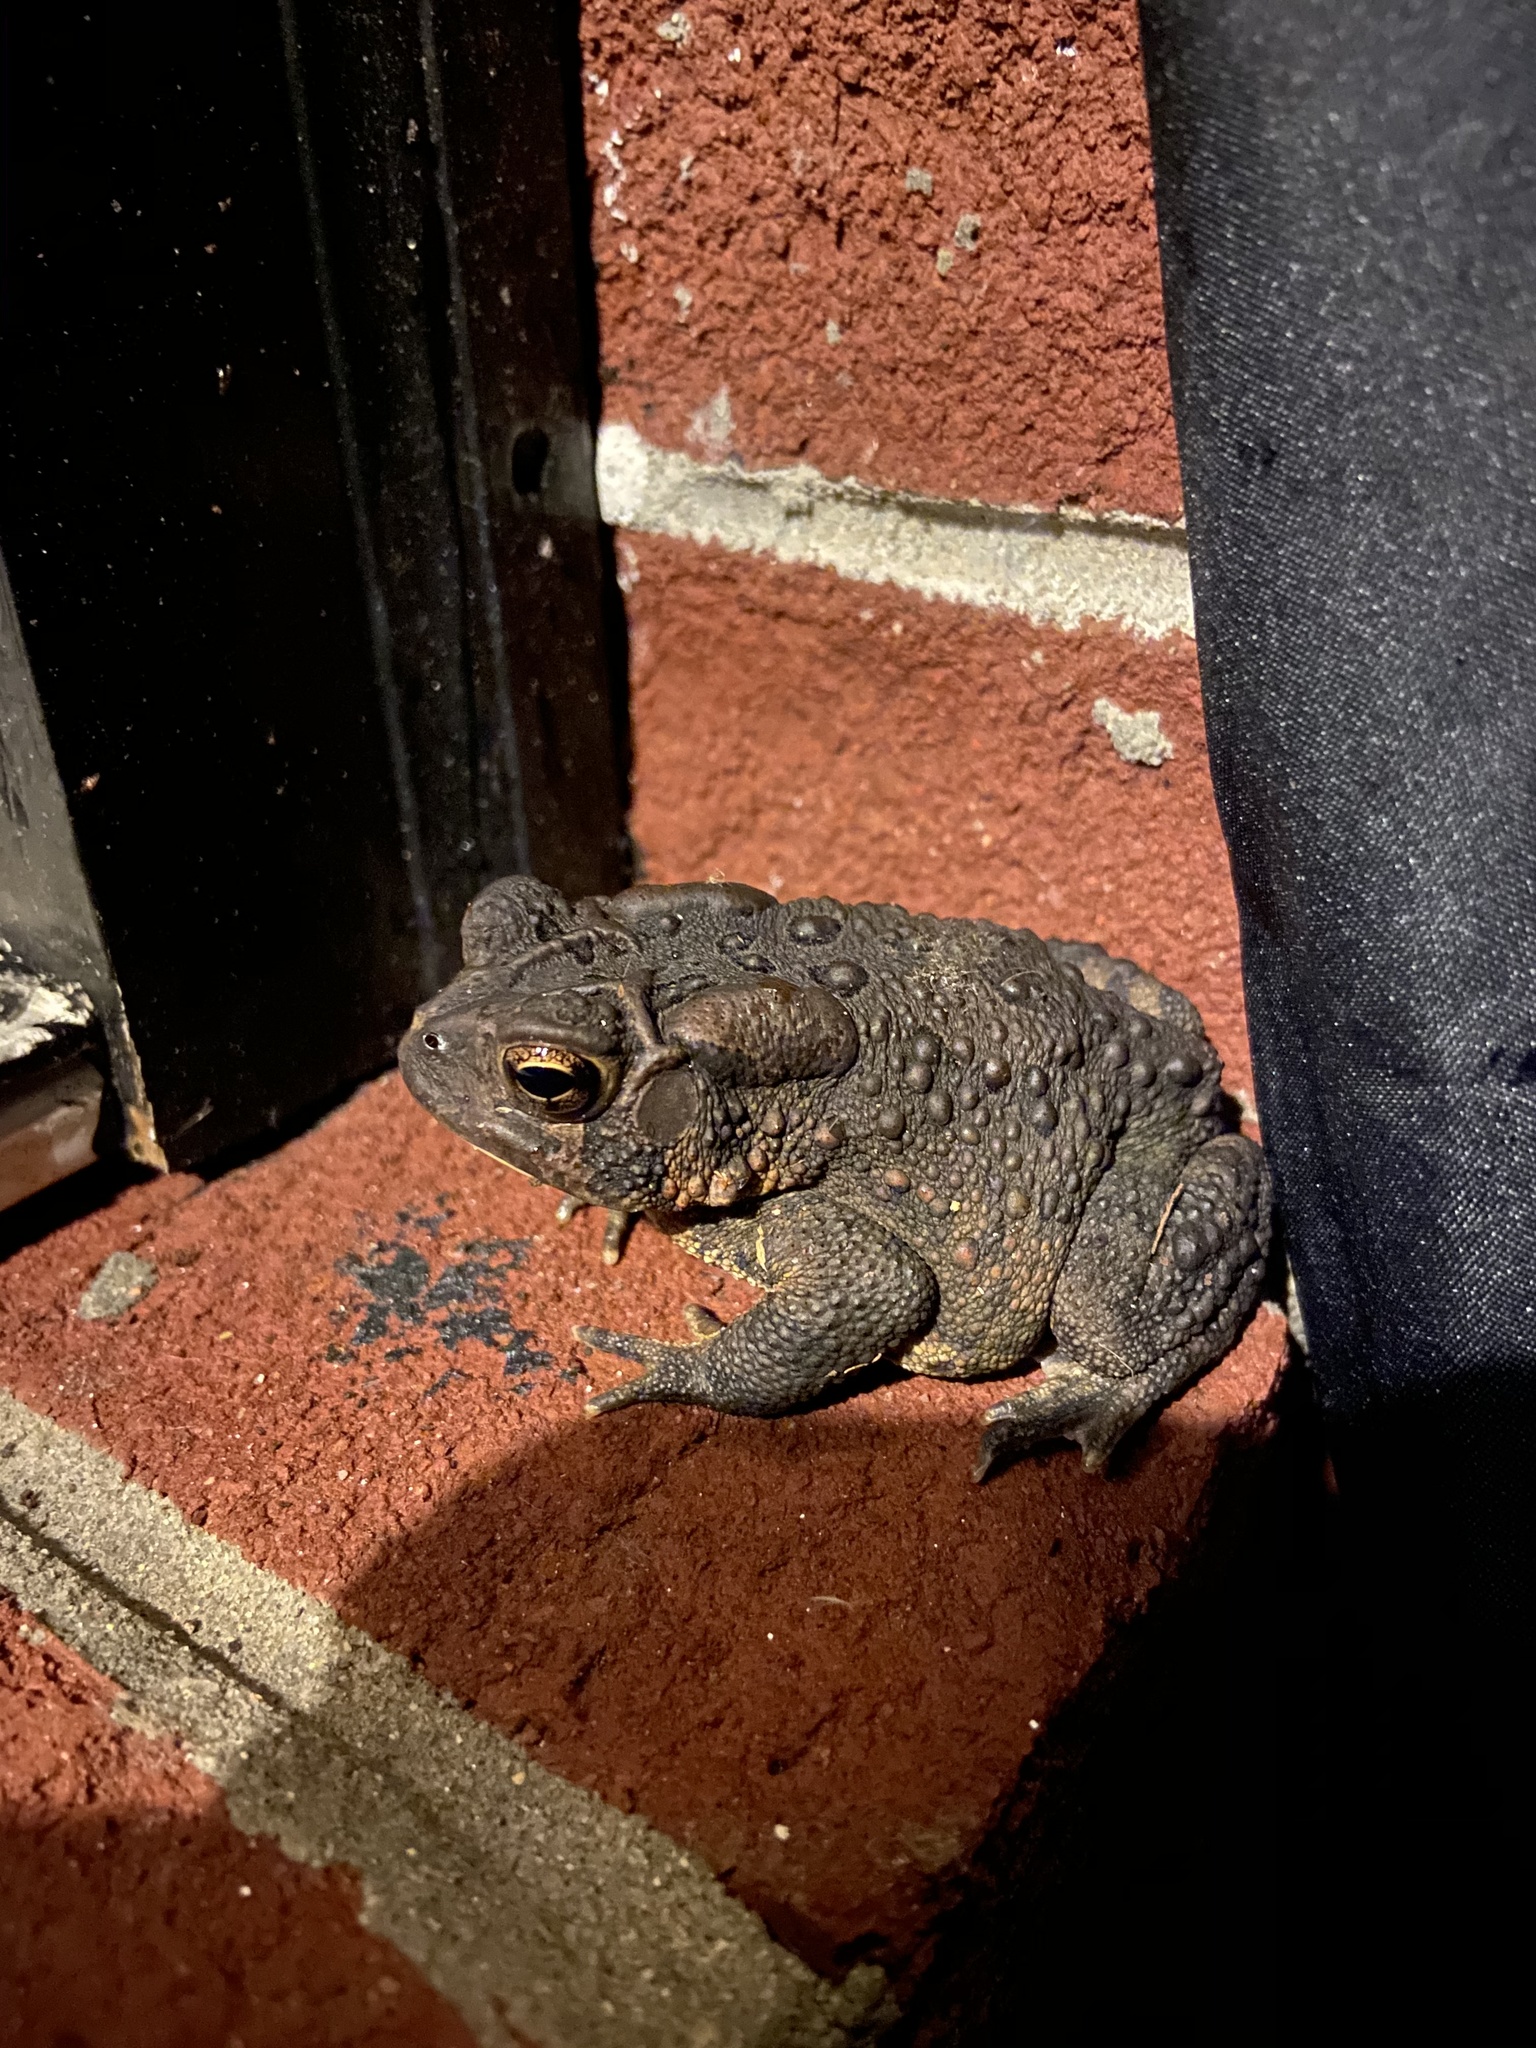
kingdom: Animalia
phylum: Chordata
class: Amphibia
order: Anura
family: Bufonidae
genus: Anaxyrus
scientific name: Anaxyrus americanus
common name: American toad
